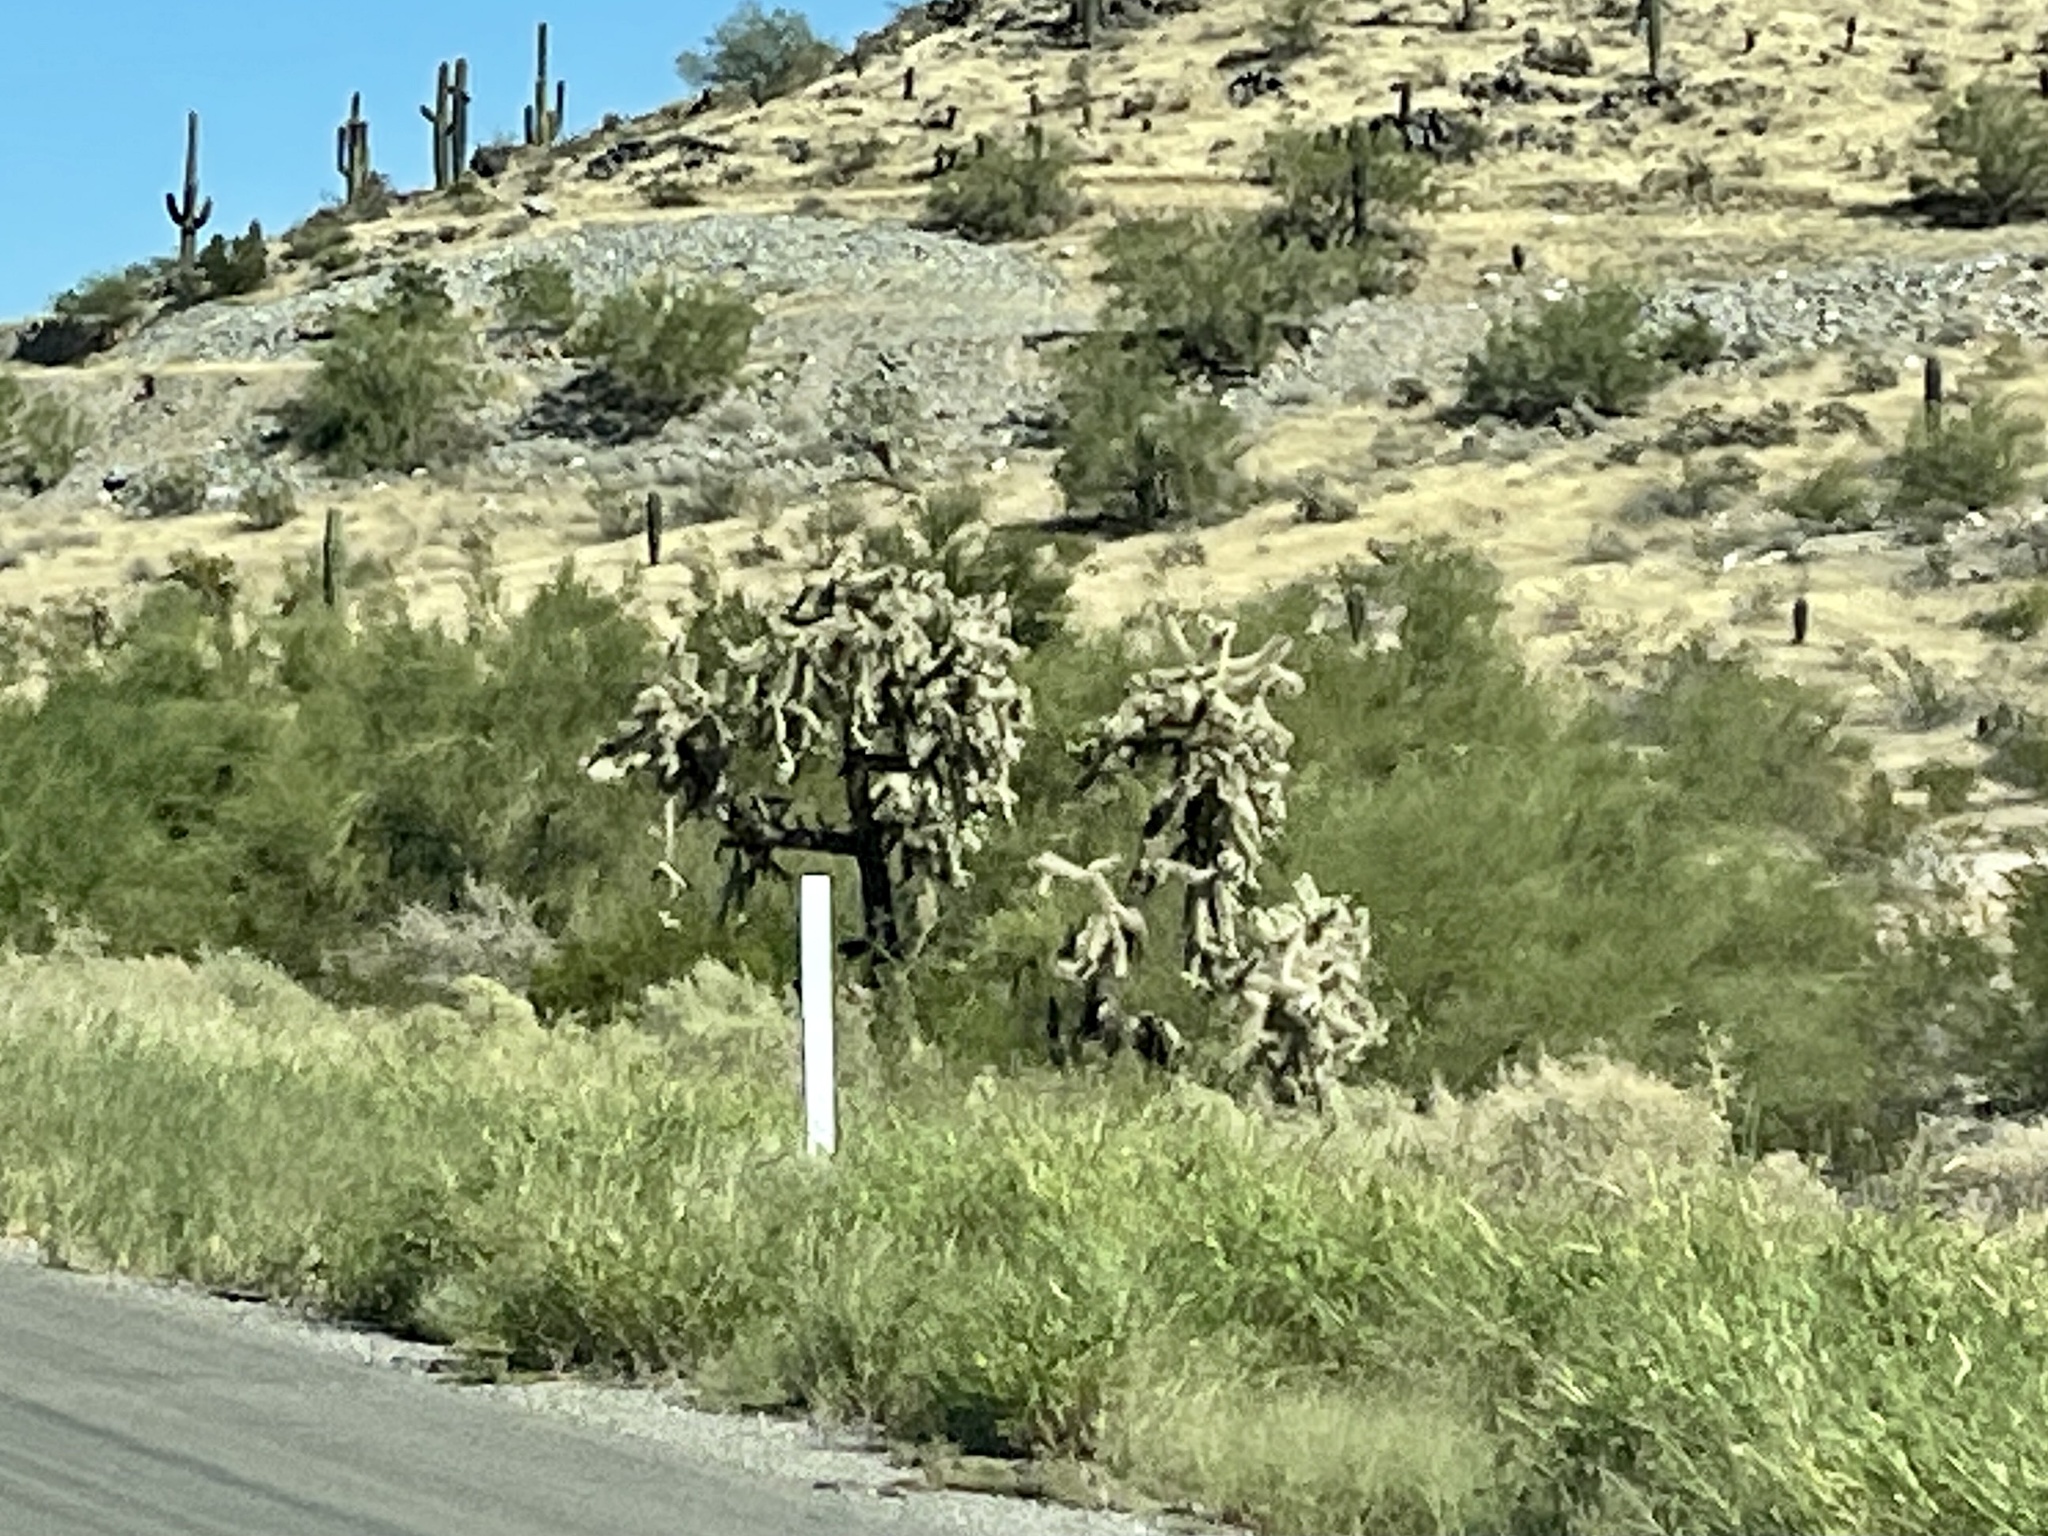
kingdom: Plantae
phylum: Tracheophyta
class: Magnoliopsida
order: Caryophyllales
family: Cactaceae
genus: Cylindropuntia
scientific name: Cylindropuntia fulgida
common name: Jumping cholla
